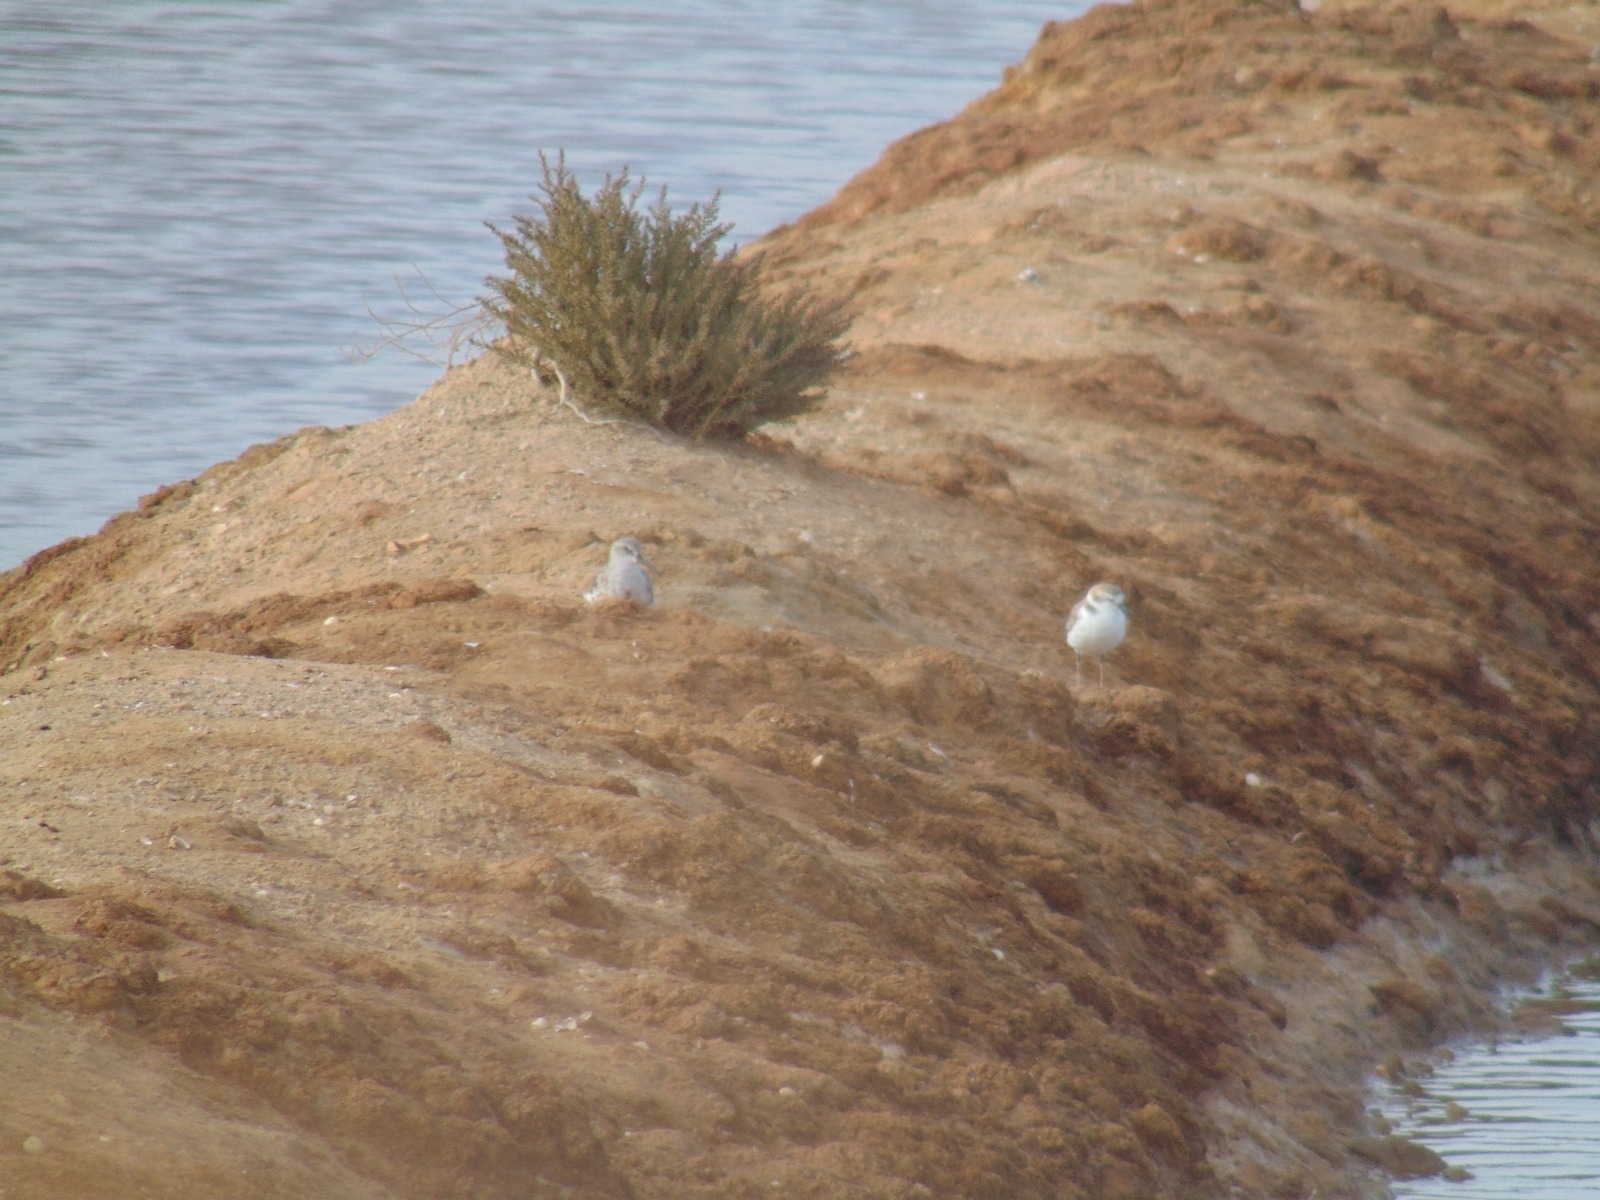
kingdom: Animalia
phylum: Chordata
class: Aves
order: Charadriiformes
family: Charadriidae
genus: Charadrius
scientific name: Charadrius alexandrinus
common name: Kentish plover
